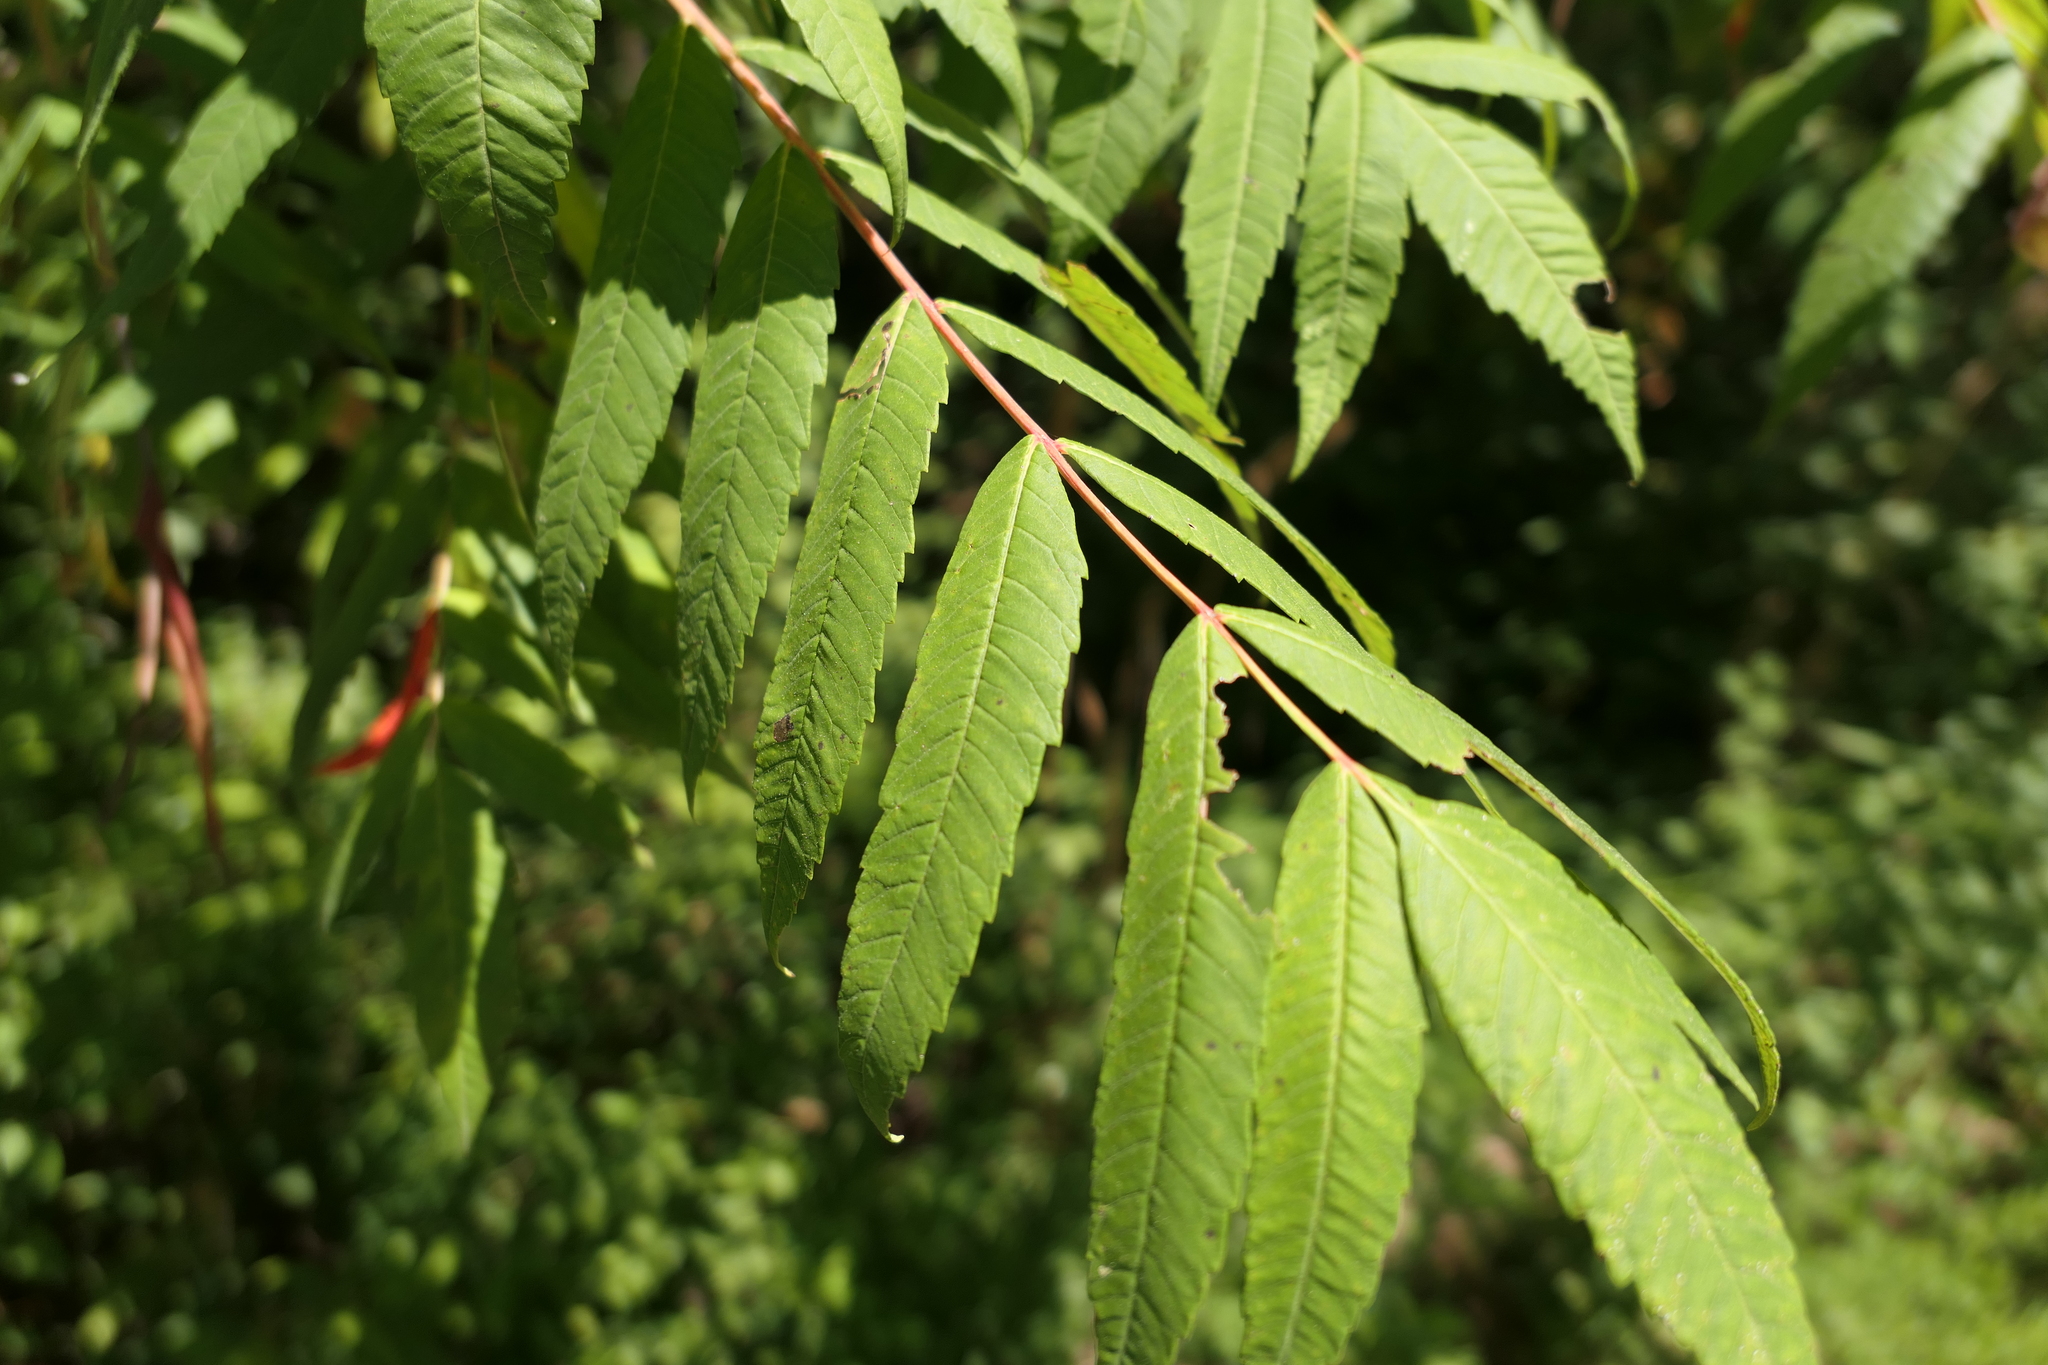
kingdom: Plantae
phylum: Tracheophyta
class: Magnoliopsida
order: Sapindales
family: Anacardiaceae
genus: Rhus
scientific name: Rhus glabra
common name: Scarlet sumac
